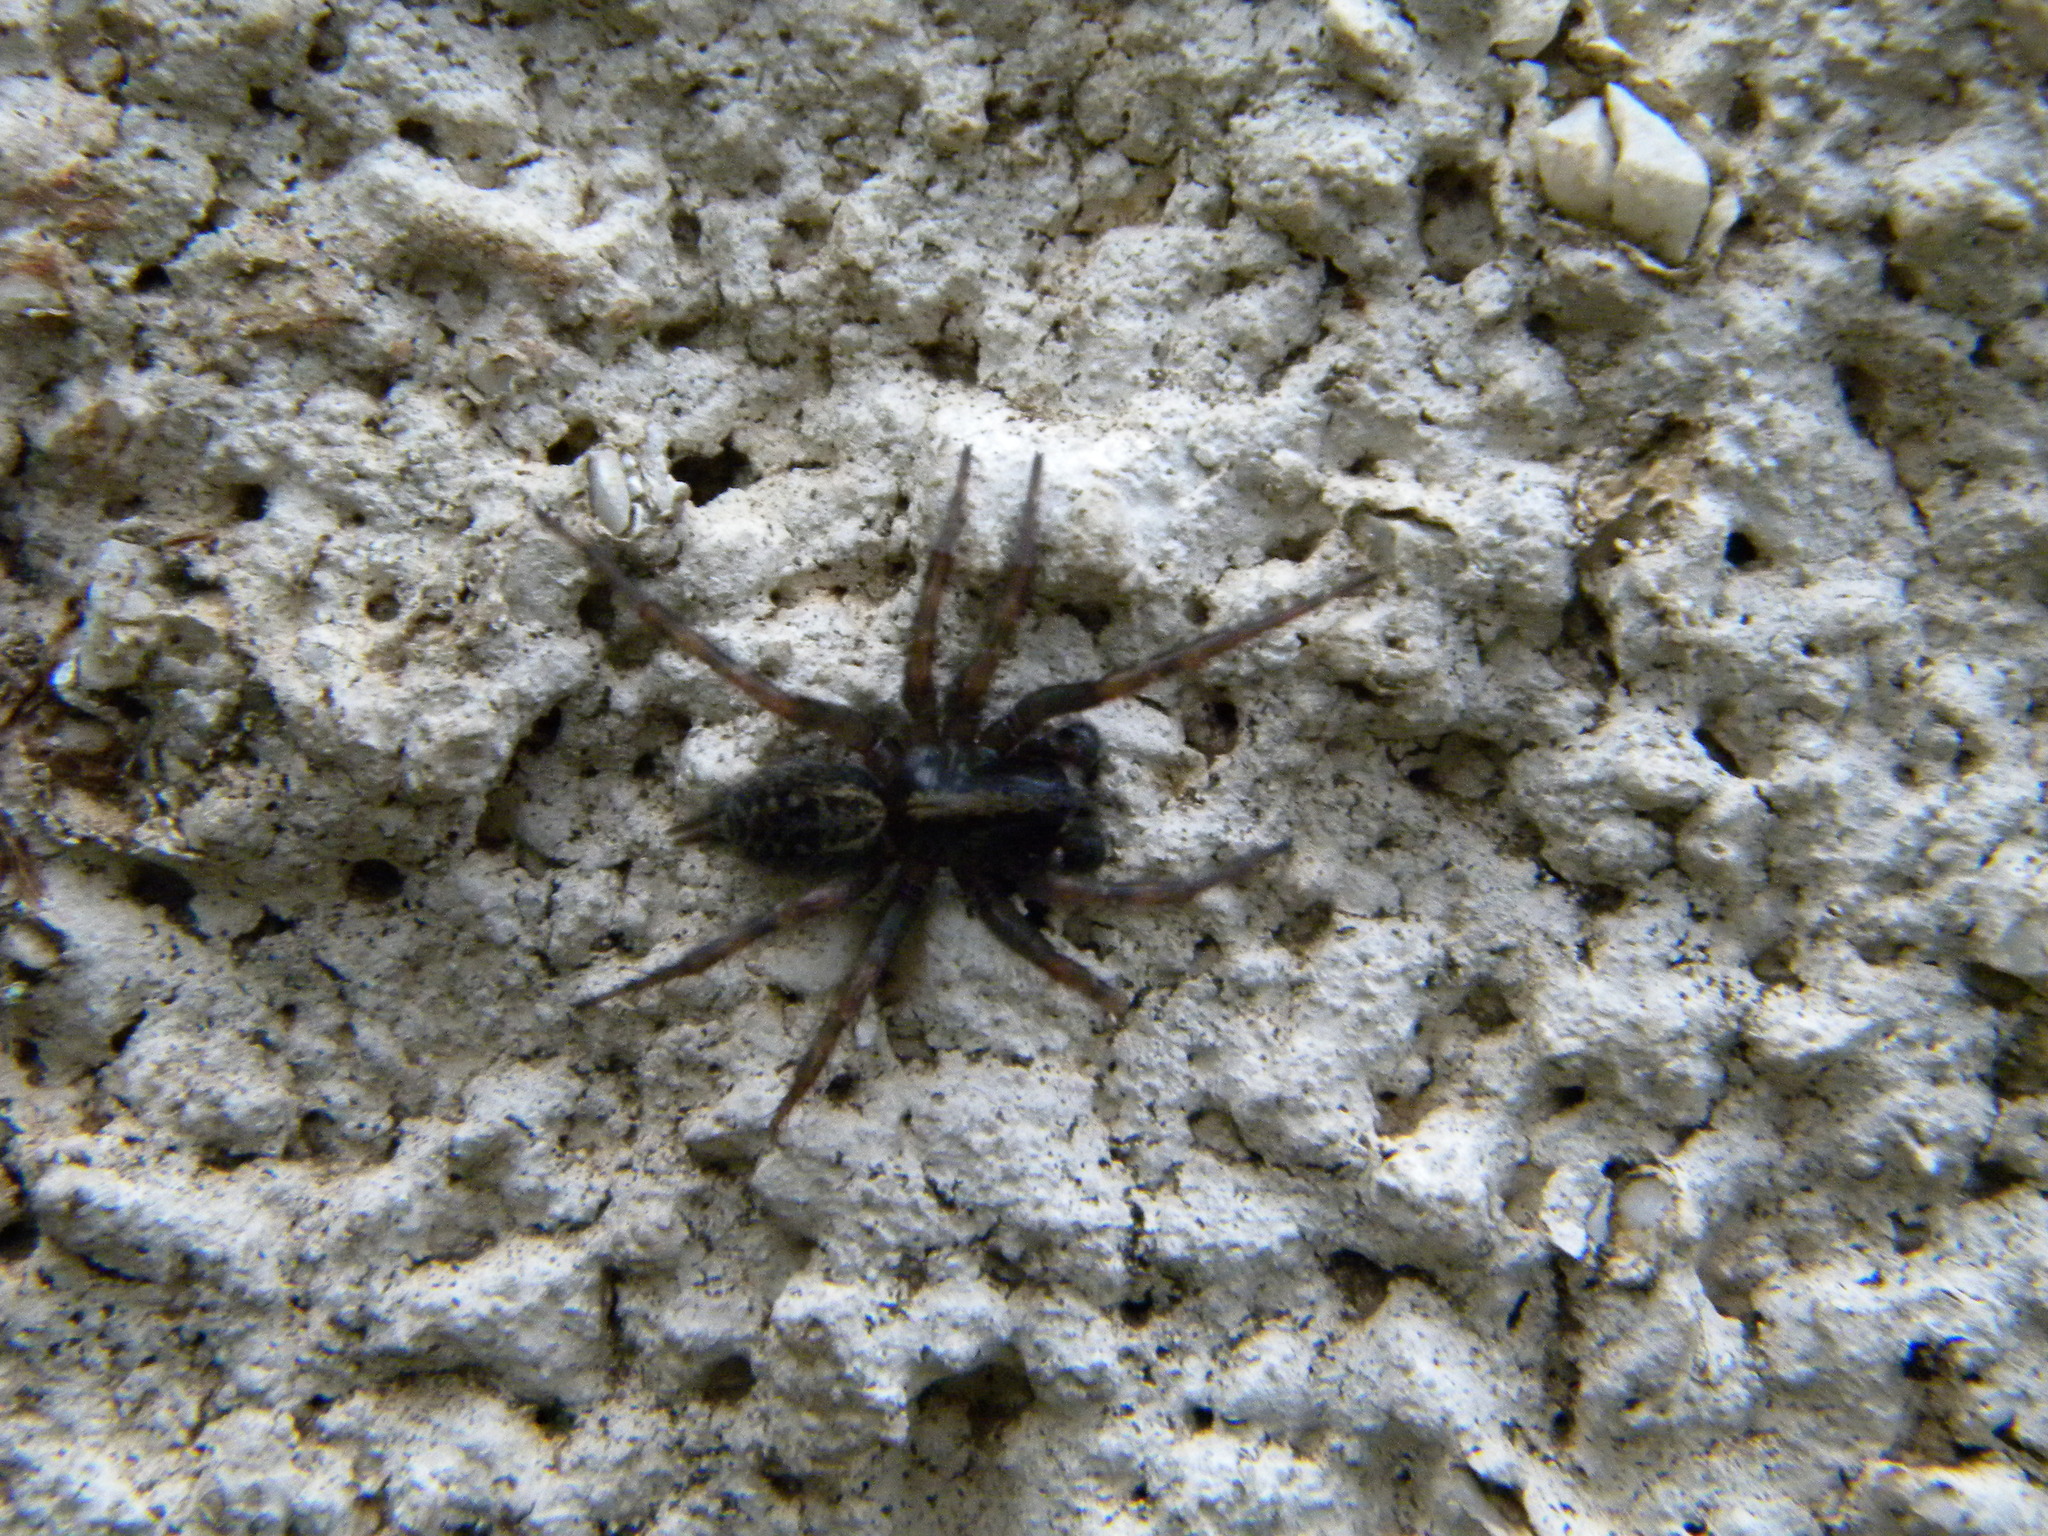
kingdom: Animalia
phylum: Arthropoda
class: Arachnida
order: Araneae
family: Agelenidae
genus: Maimuna
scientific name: Maimuna vestita
